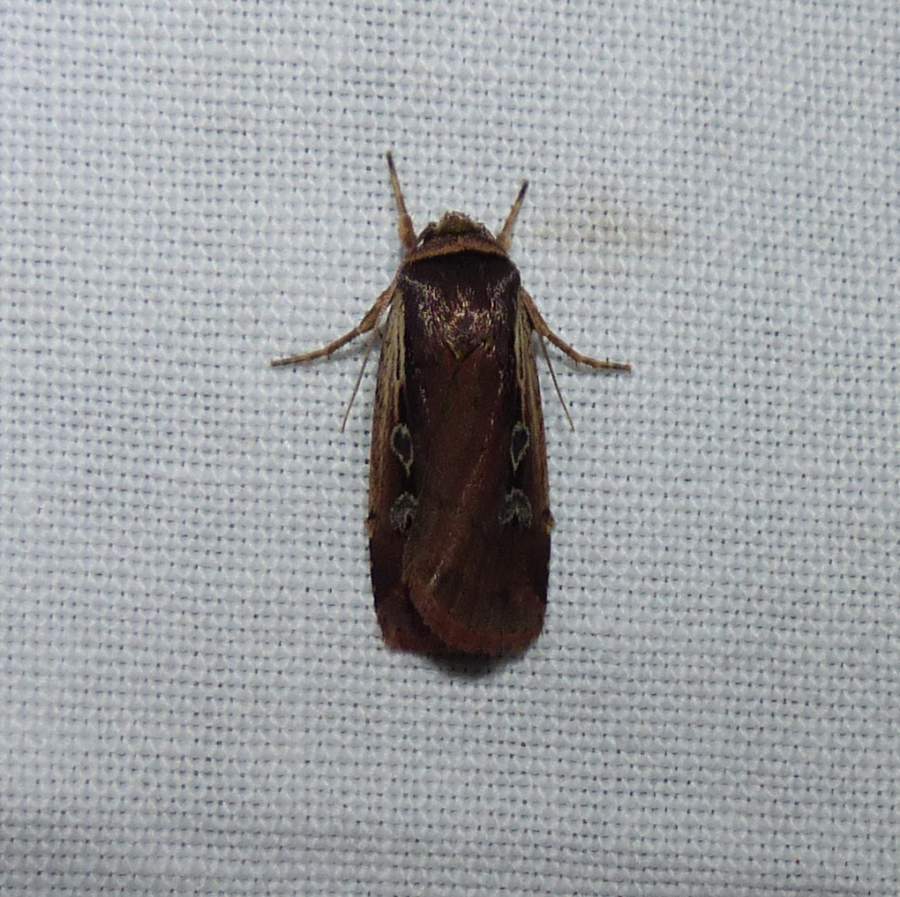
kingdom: Animalia
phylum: Arthropoda
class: Insecta
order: Lepidoptera
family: Noctuidae
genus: Ochropleura
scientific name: Ochropleura implecta
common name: Flame-shouldered dart
